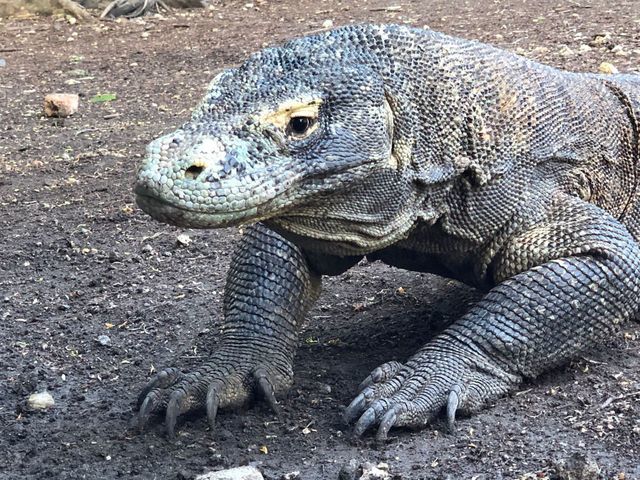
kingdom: Animalia
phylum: Chordata
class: Squamata
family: Varanidae
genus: Varanus
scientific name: Varanus komodoensis
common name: Komodo dragon
